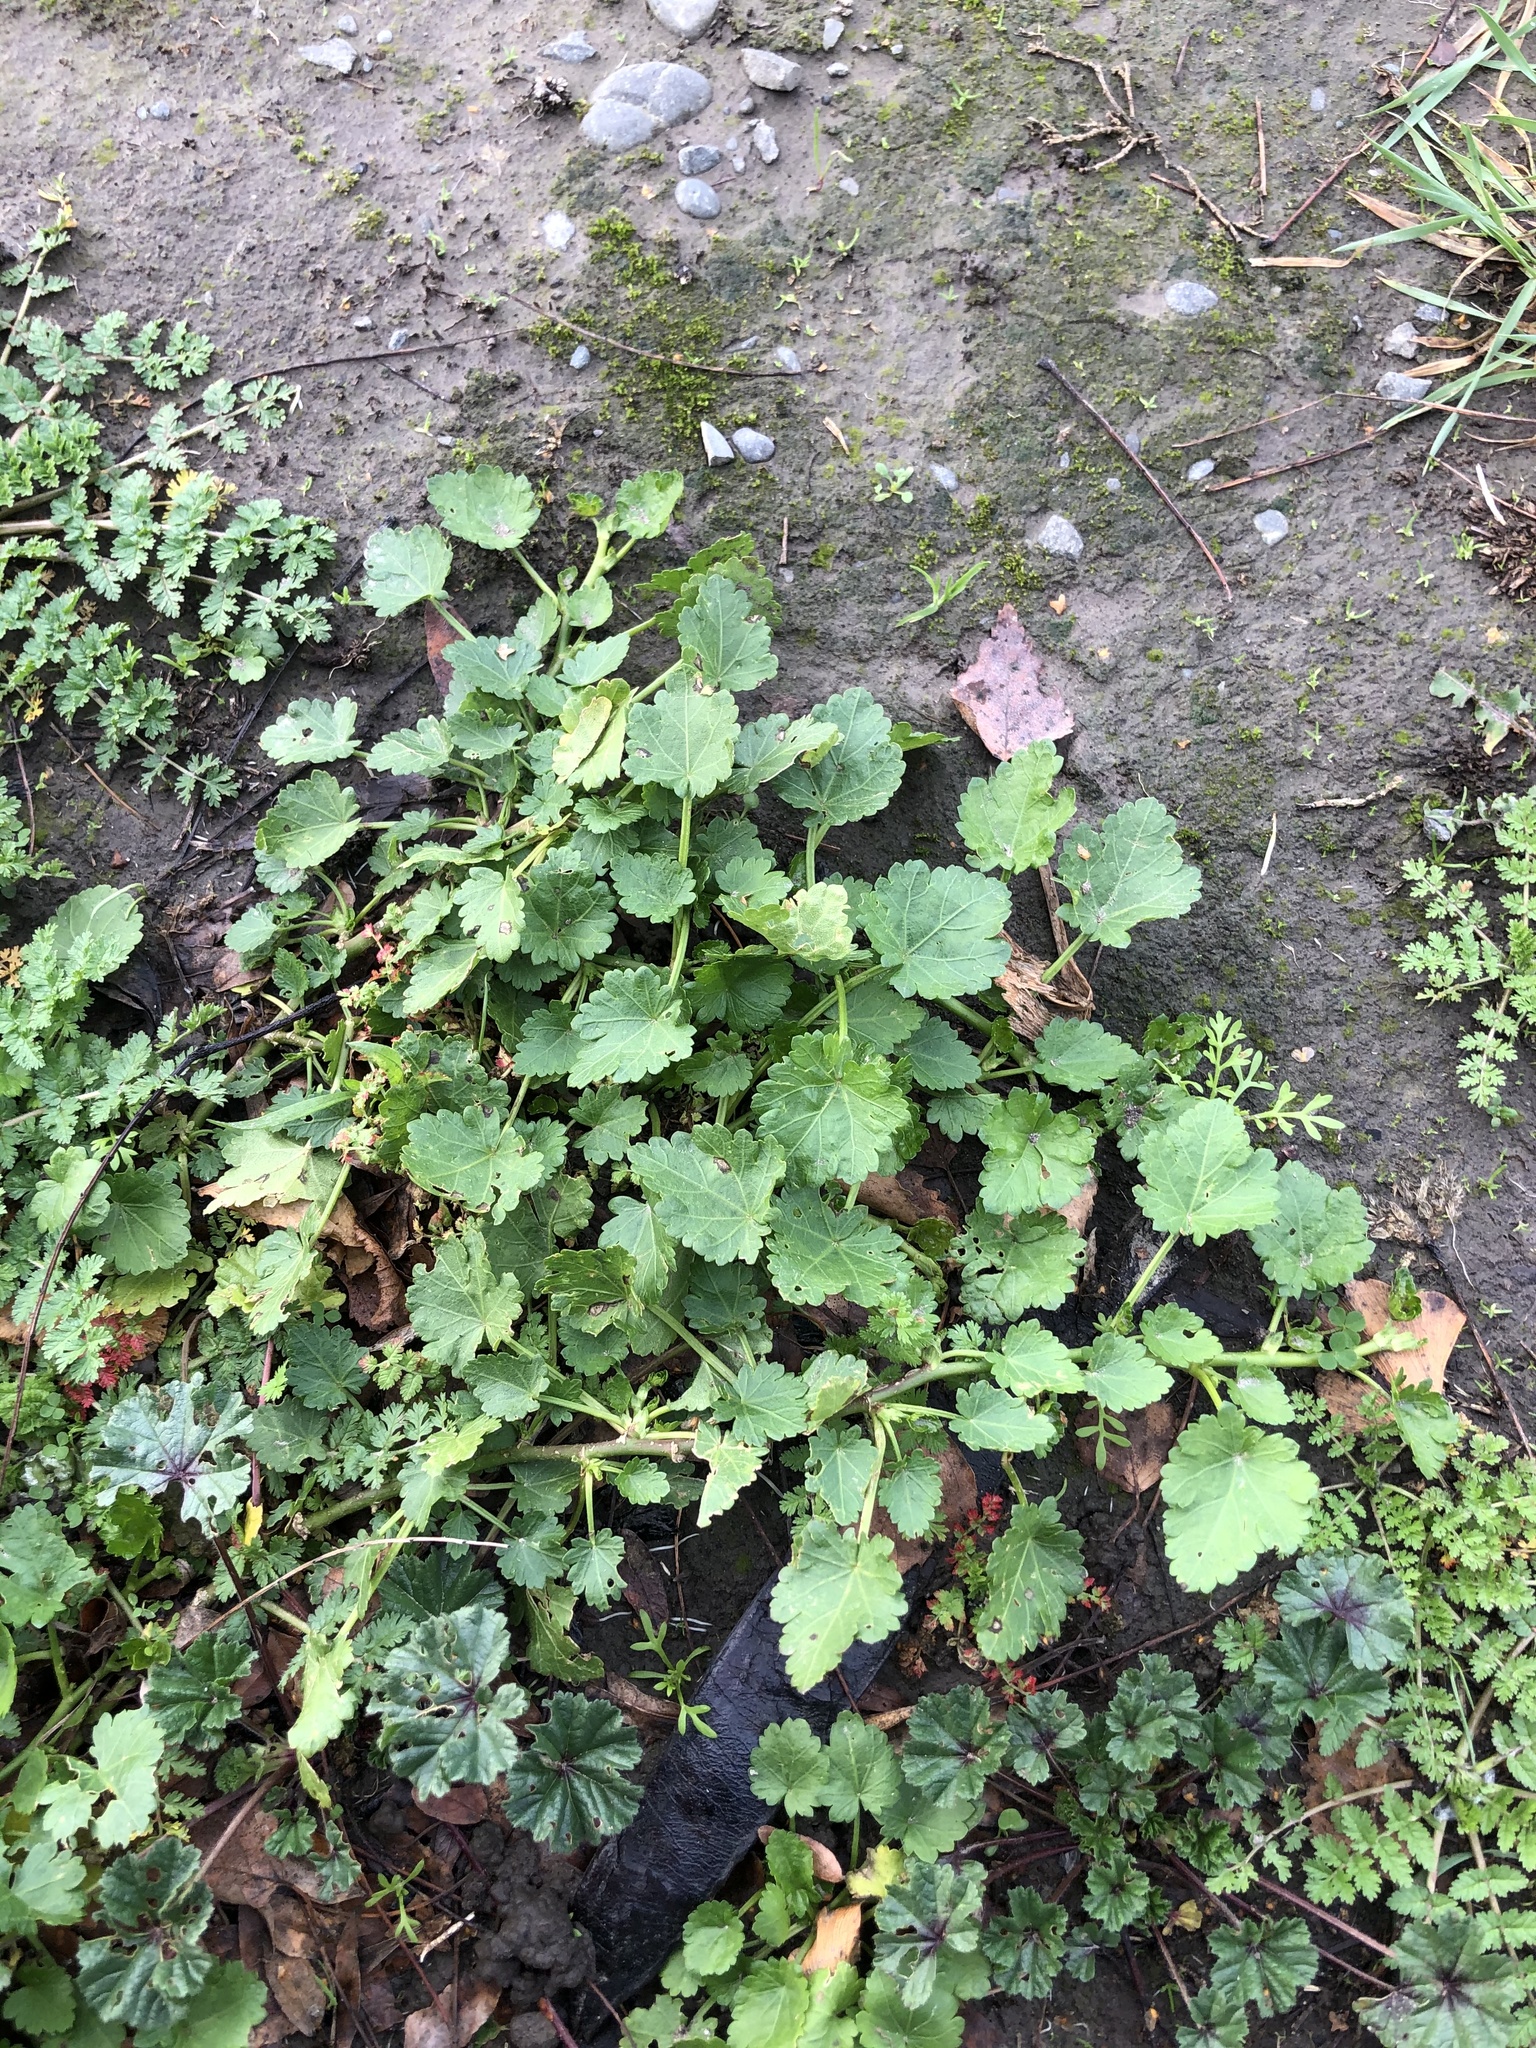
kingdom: Plantae
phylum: Tracheophyta
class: Magnoliopsida
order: Malvales
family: Malvaceae
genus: Modiola
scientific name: Modiola caroliniana
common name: Carolina bristlemallow
